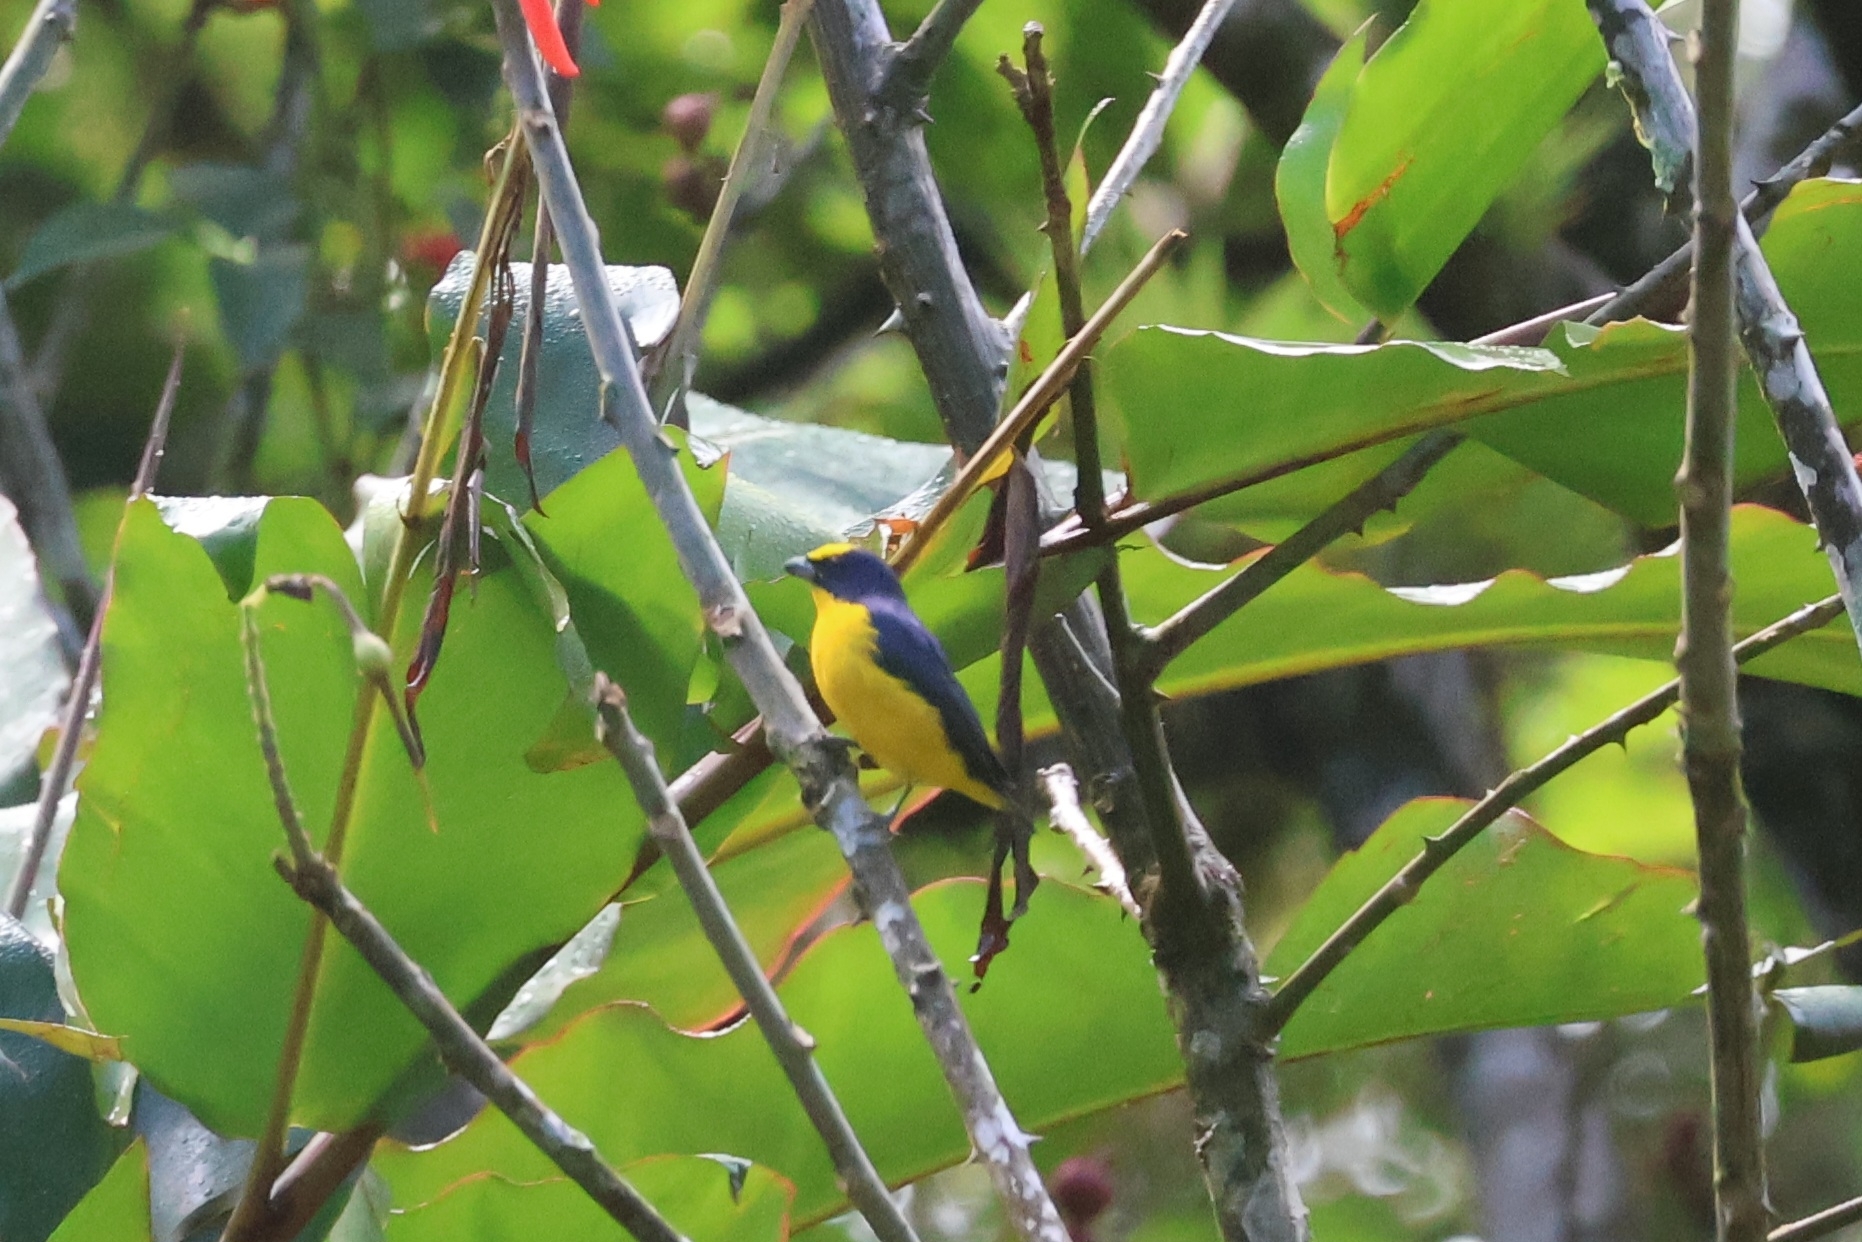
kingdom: Animalia
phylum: Chordata
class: Aves
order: Passeriformes
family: Fringillidae
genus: Euphonia
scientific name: Euphonia laniirostris
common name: Thick-billed euphonia
